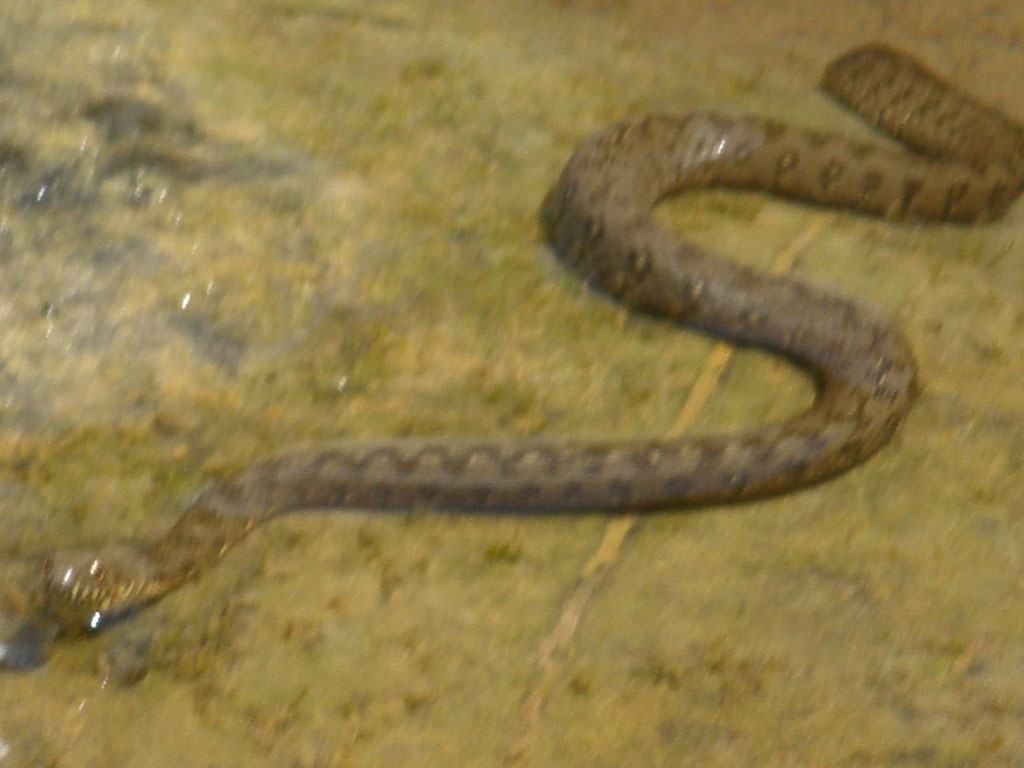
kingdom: Animalia
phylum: Chordata
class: Squamata
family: Colubridae
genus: Natrix
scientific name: Natrix maura
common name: Viperine water snake
